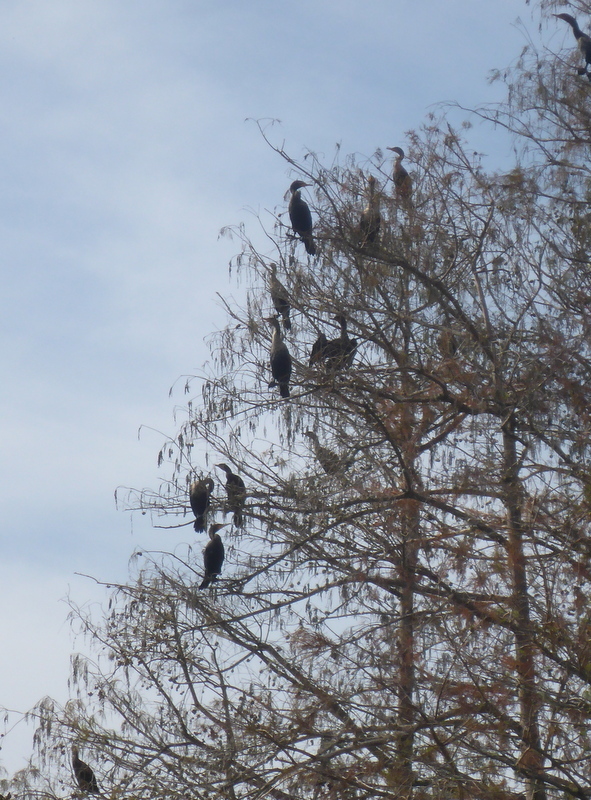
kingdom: Animalia
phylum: Chordata
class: Aves
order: Suliformes
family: Phalacrocoracidae
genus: Phalacrocorax
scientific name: Phalacrocorax auritus
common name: Double-crested cormorant
